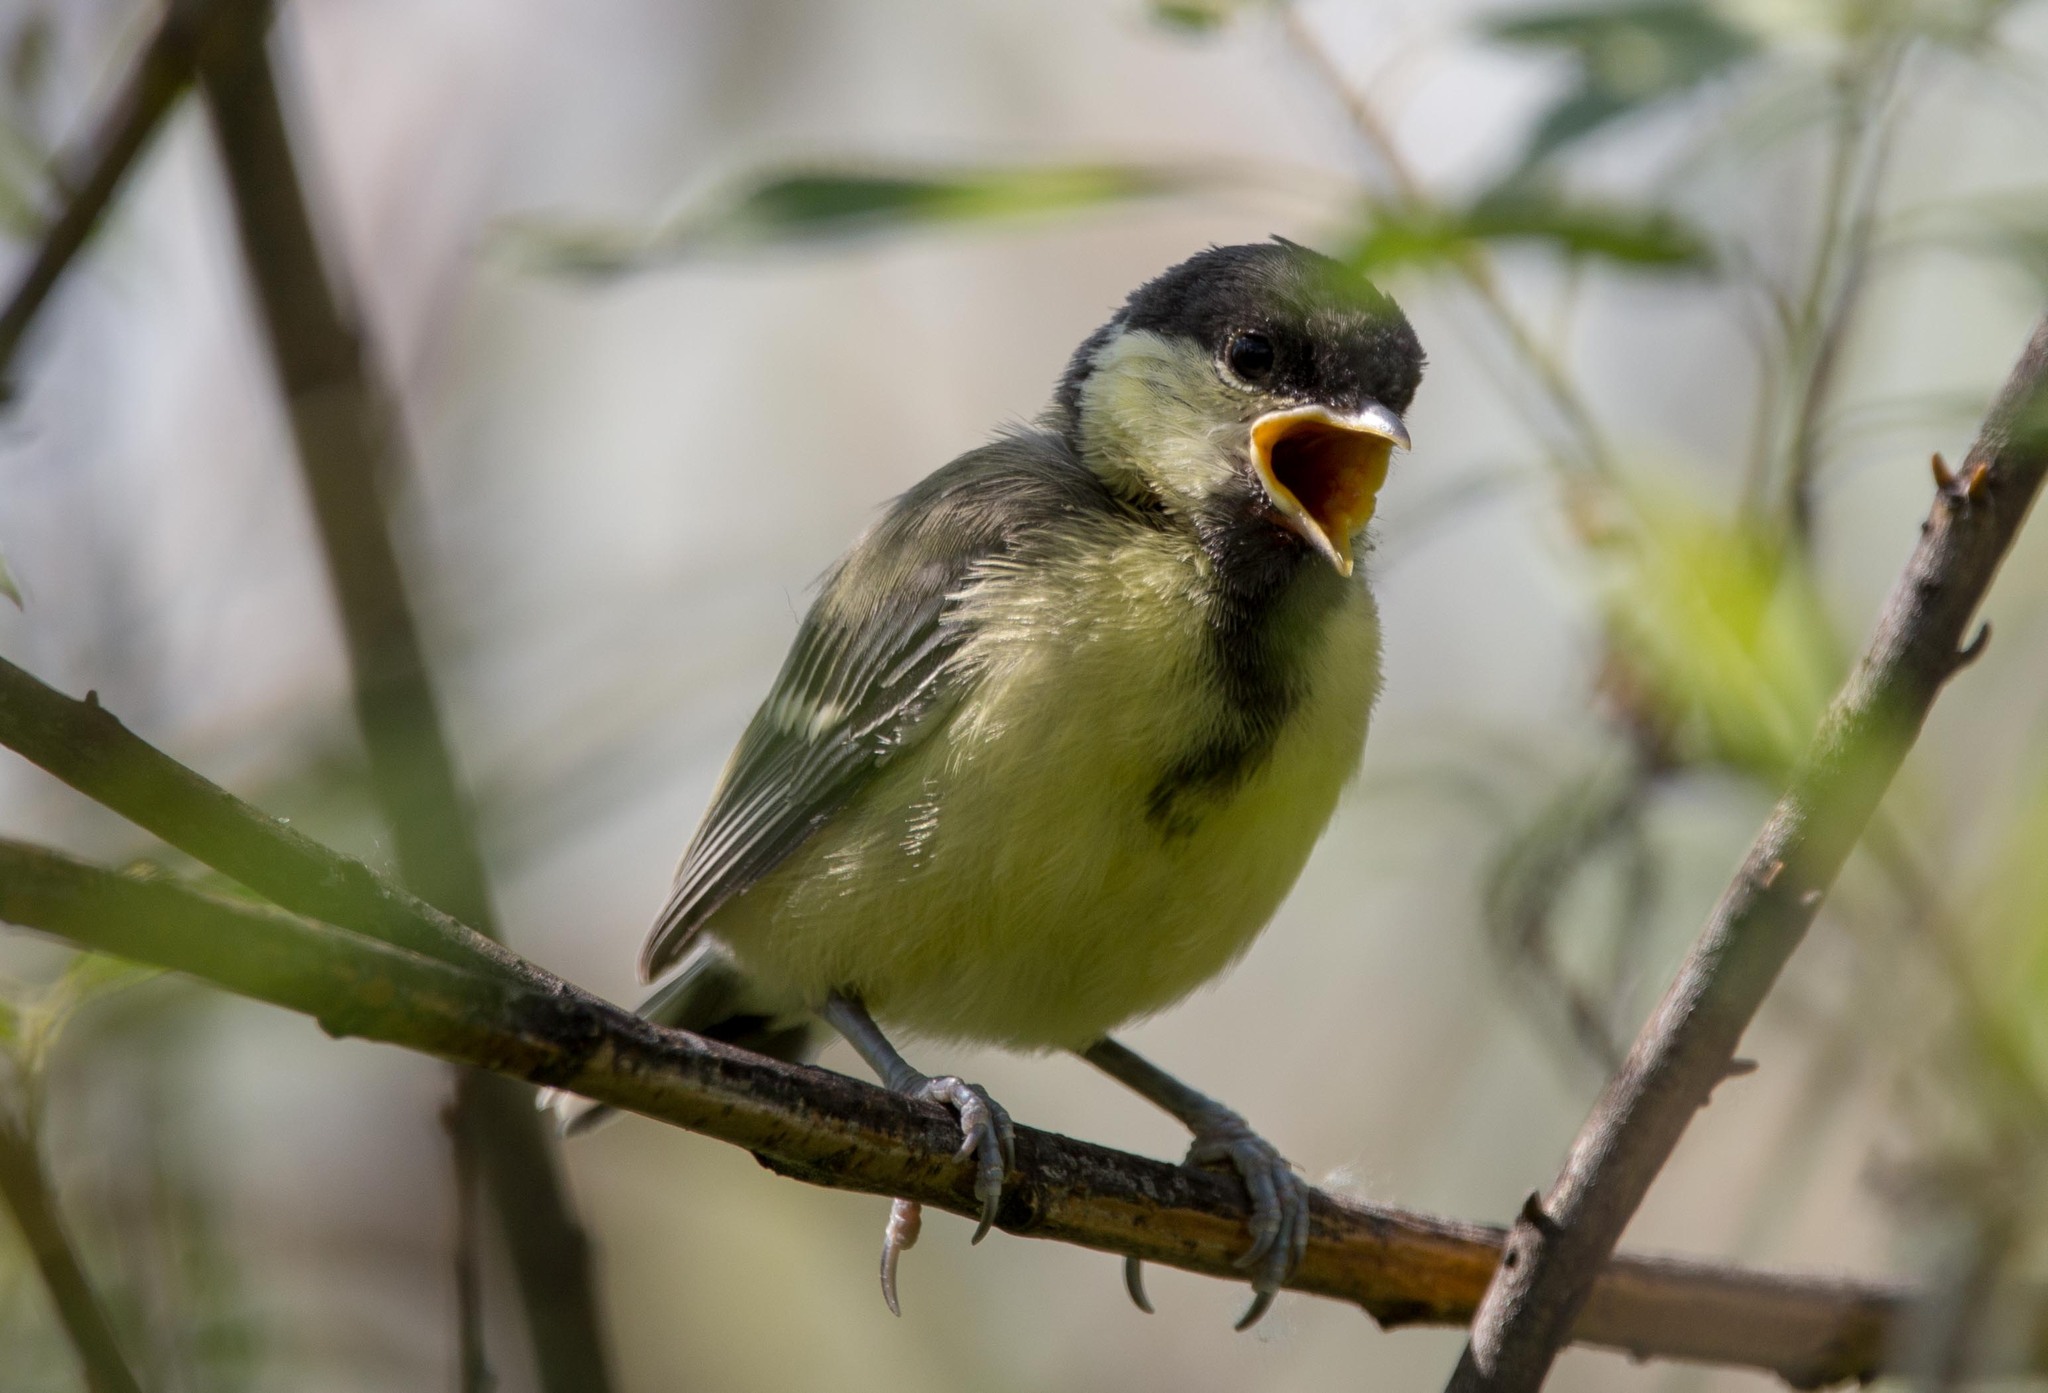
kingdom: Animalia
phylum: Chordata
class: Aves
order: Passeriformes
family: Paridae
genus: Parus
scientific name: Parus major
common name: Great tit
